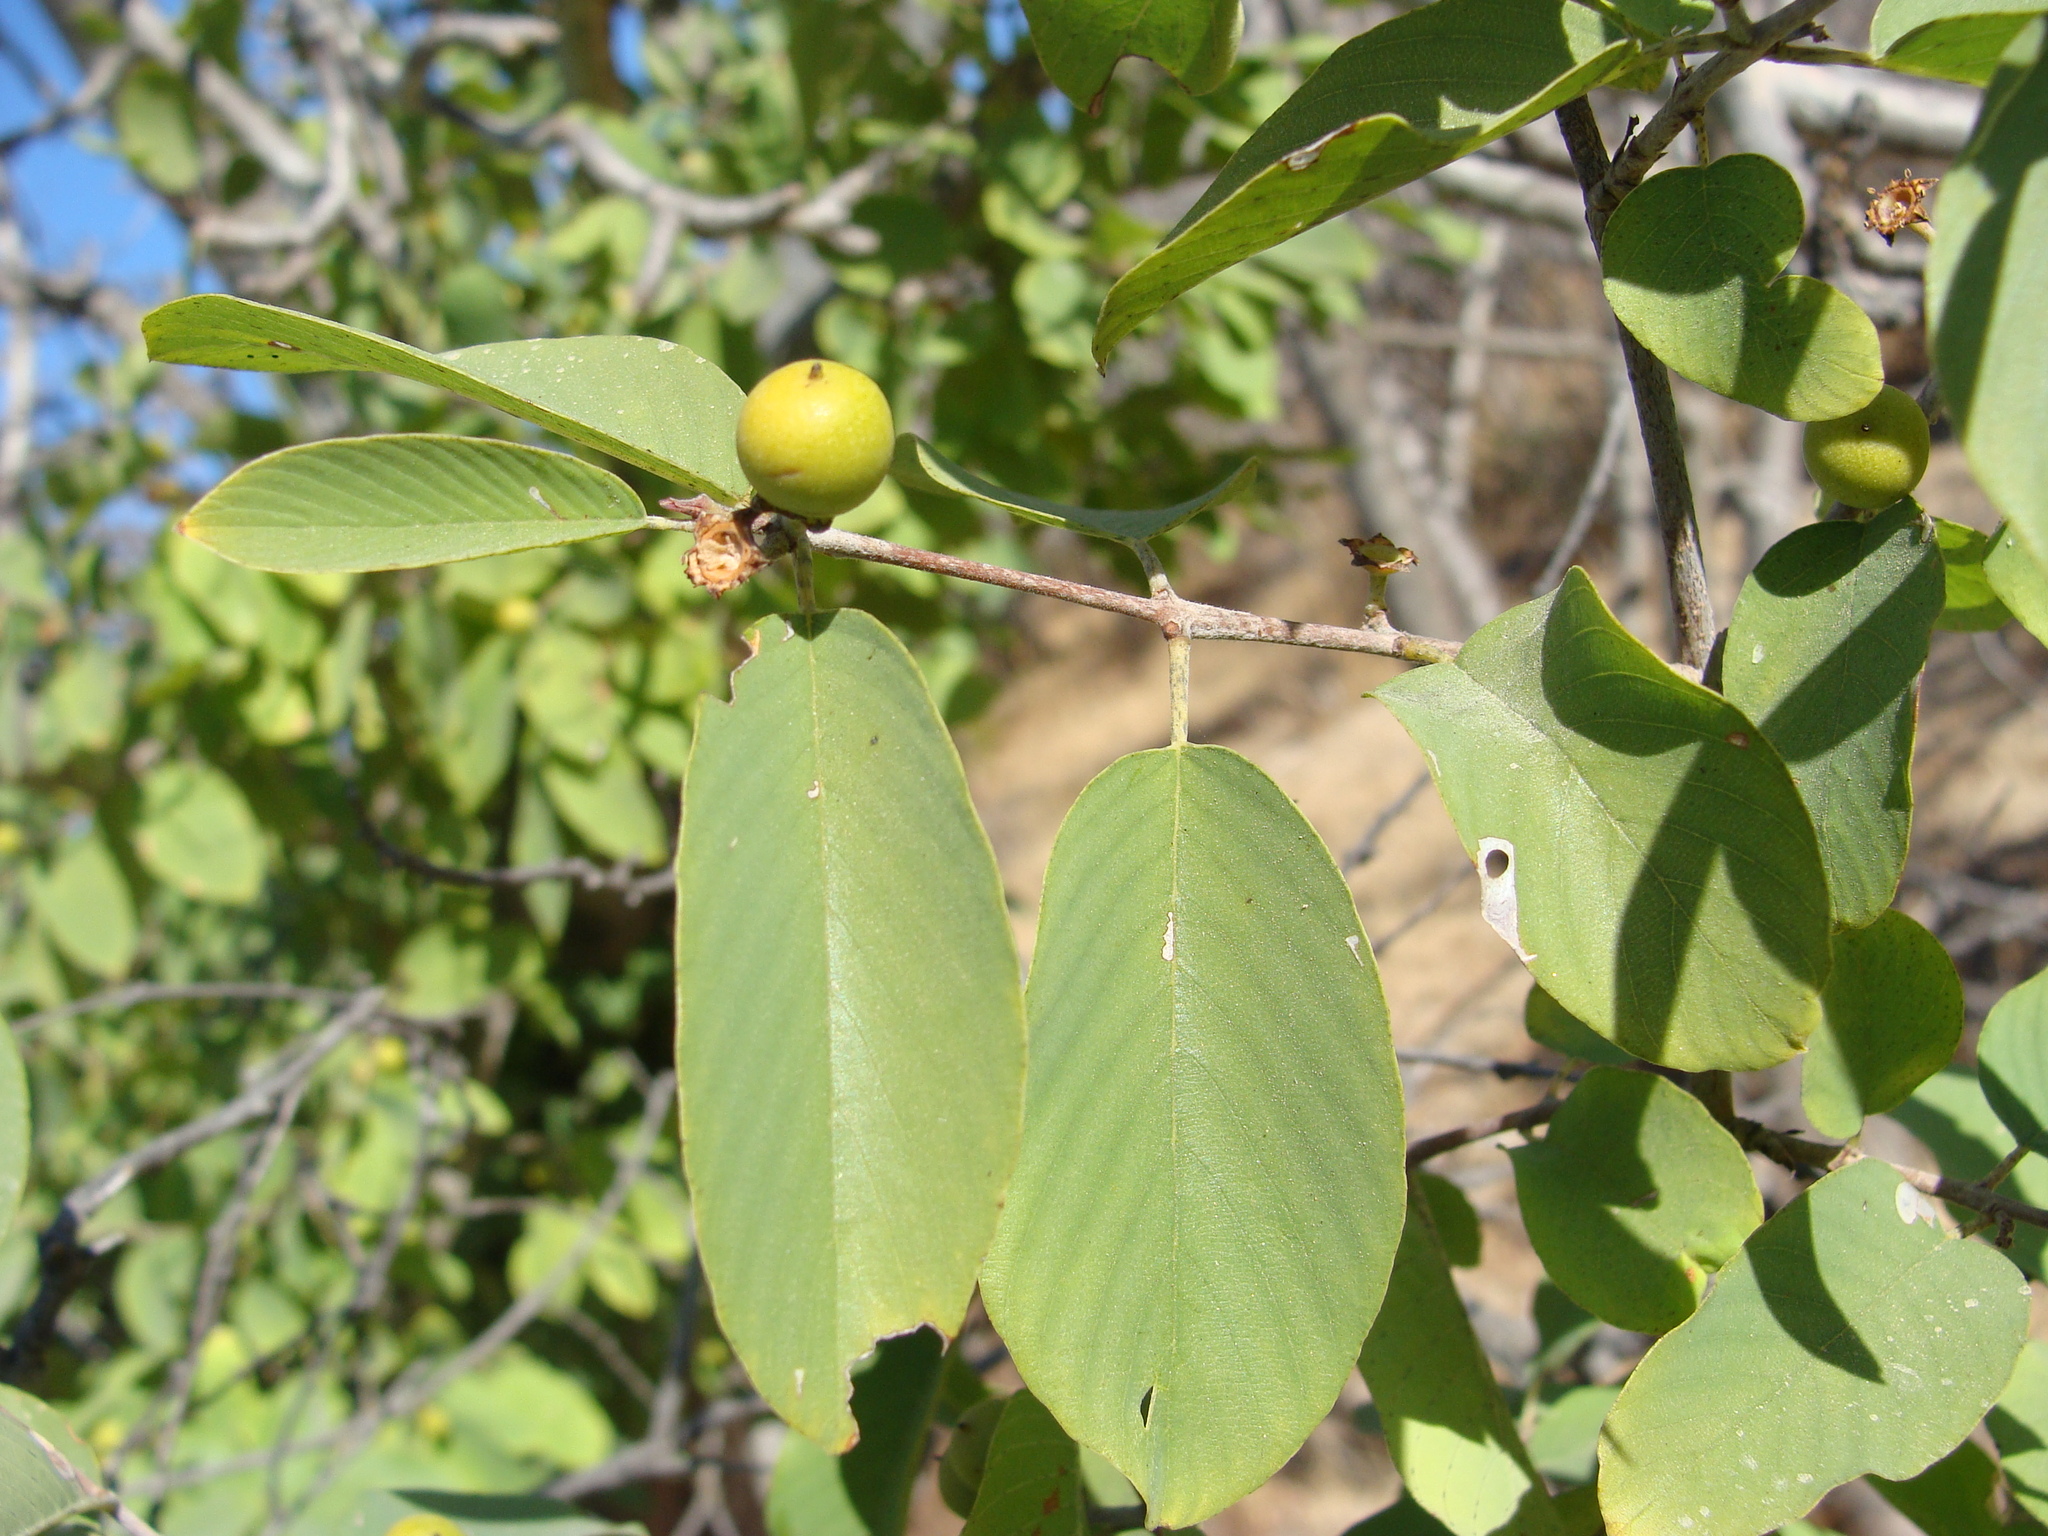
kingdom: Plantae
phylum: Tracheophyta
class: Magnoliopsida
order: Rosales
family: Rhamnaceae
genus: Karwinskia
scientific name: Karwinskia humboldtiana
